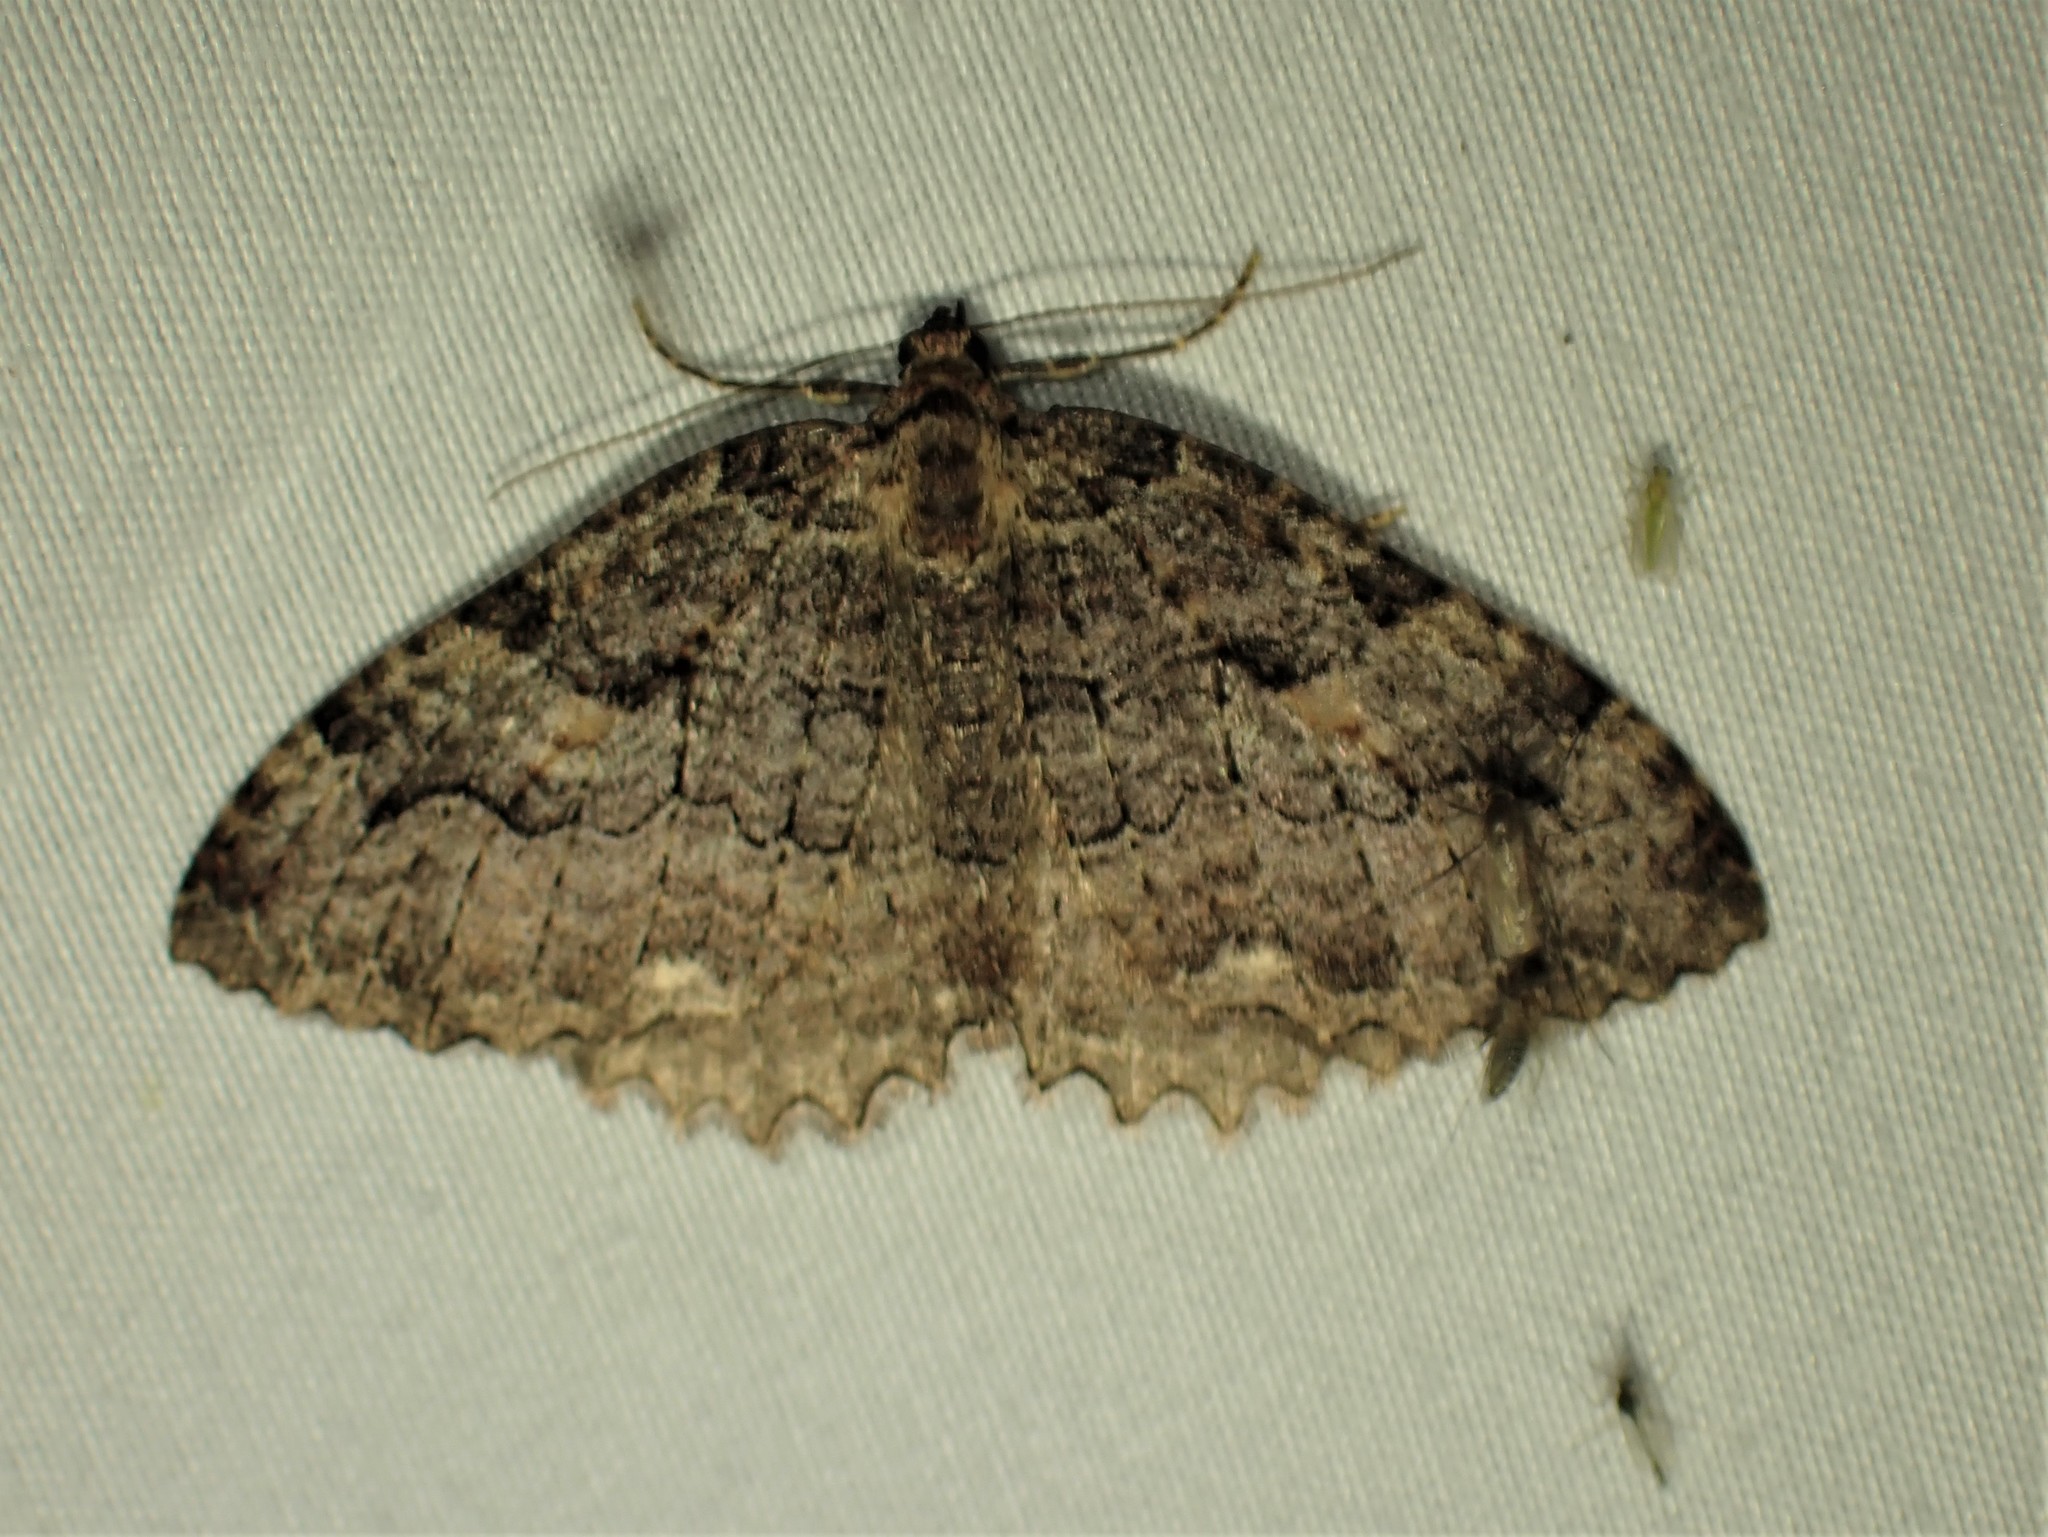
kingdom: Animalia
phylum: Arthropoda
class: Insecta
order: Lepidoptera
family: Geometridae
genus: Triphosa
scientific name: Triphosa haesitata
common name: Tissue moth
